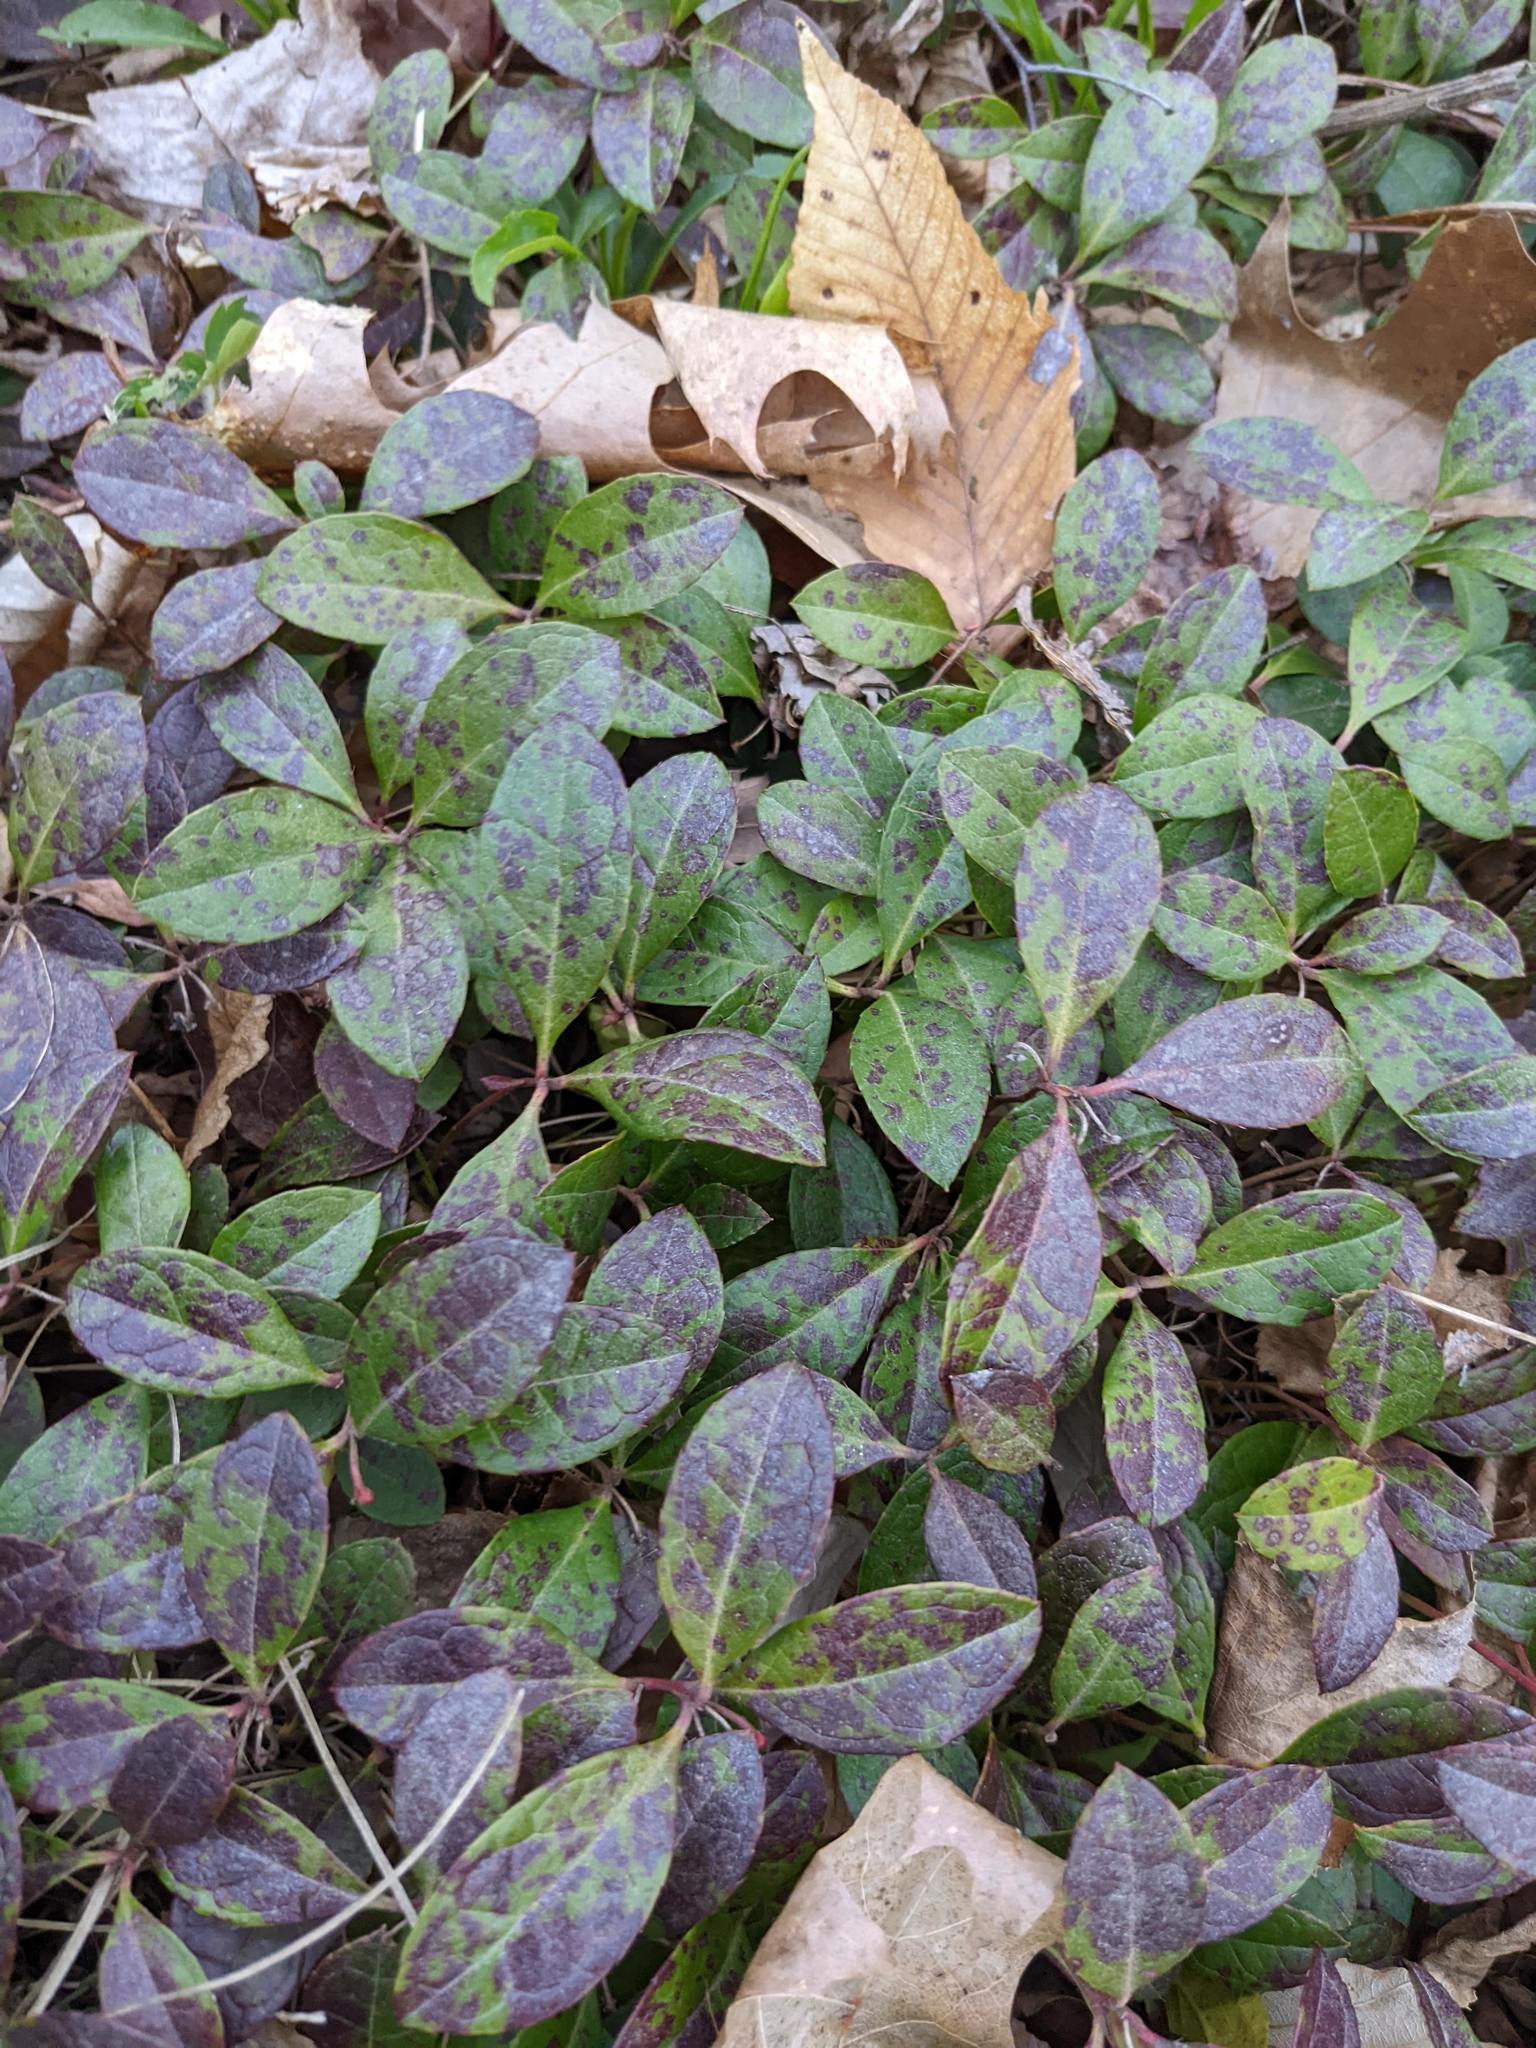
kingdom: Plantae
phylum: Tracheophyta
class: Magnoliopsida
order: Ericales
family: Ericaceae
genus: Gaultheria
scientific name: Gaultheria procumbens
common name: Checkerberry
